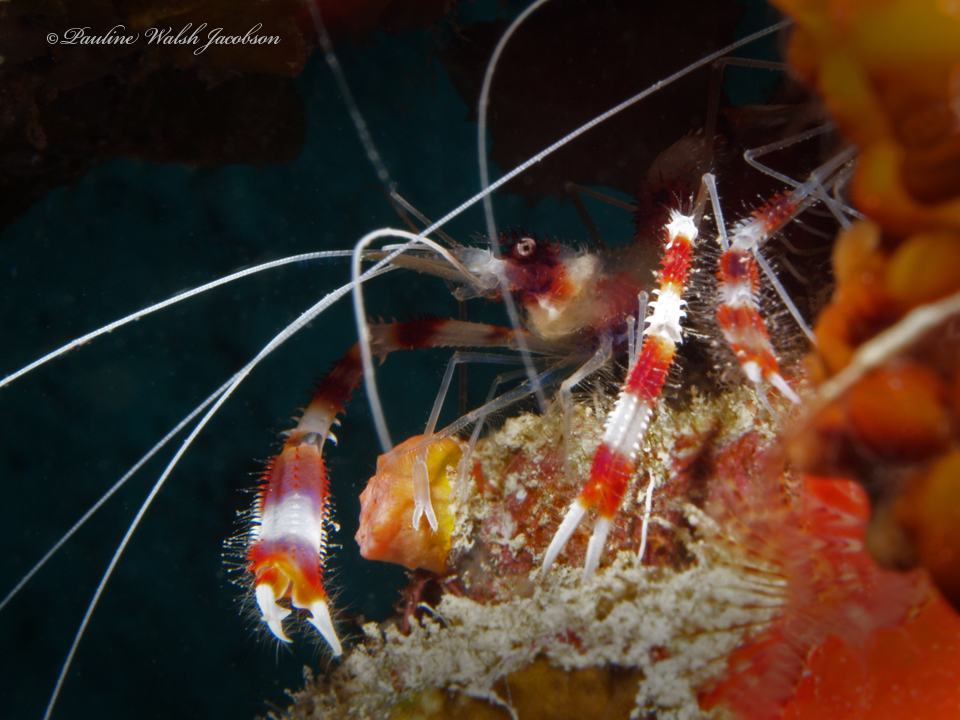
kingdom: Animalia
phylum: Arthropoda
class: Malacostraca
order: Decapoda
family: Stenopodidae
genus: Stenopus
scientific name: Stenopus hispidus
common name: Banded coral shrimp
